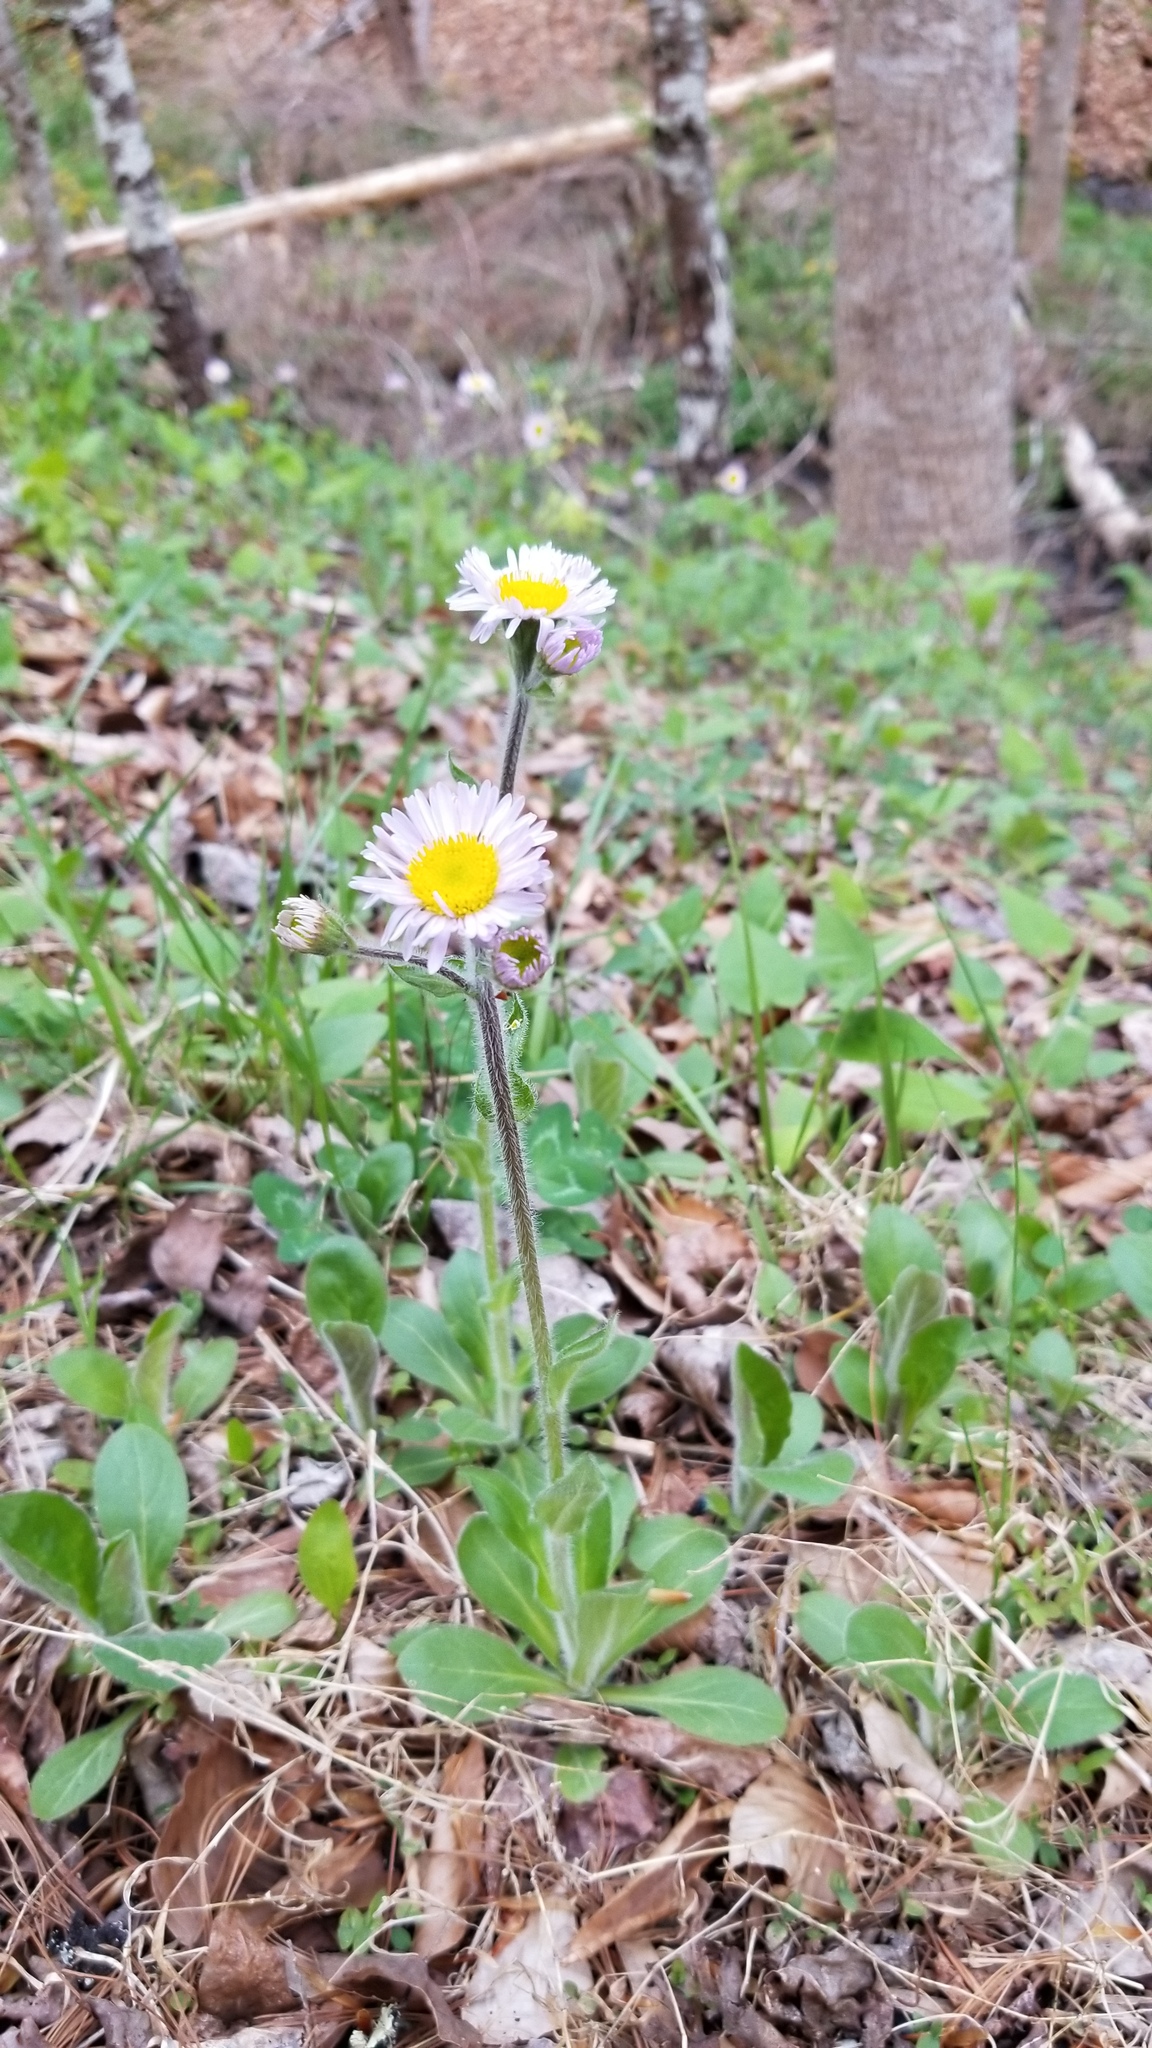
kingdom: Plantae
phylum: Tracheophyta
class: Magnoliopsida
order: Asterales
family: Asteraceae
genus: Erigeron
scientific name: Erigeron pulchellus
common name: Hairy fleabane
